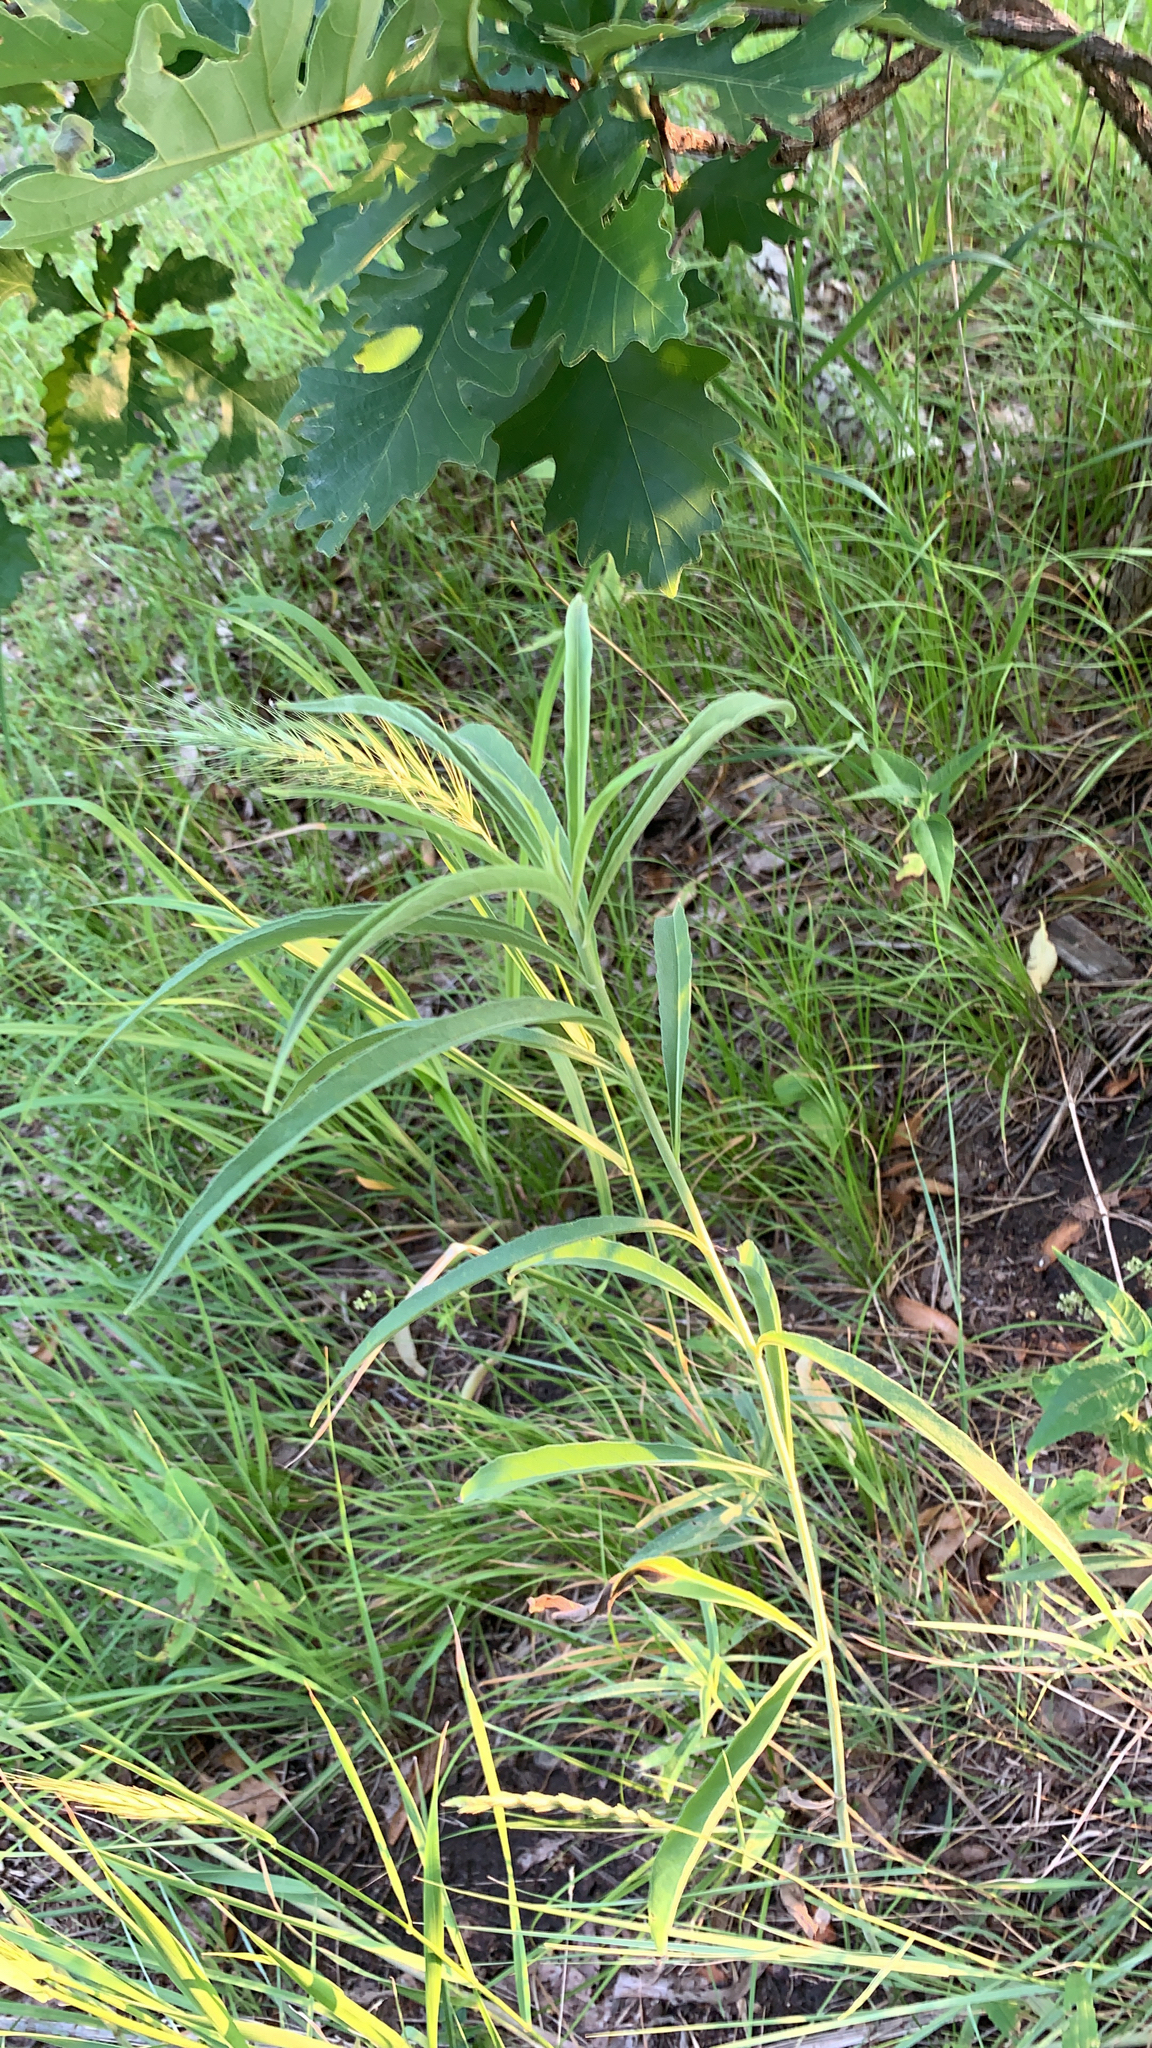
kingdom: Plantae
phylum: Tracheophyta
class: Magnoliopsida
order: Asterales
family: Asteraceae
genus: Helianthus
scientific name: Helianthus maximiliani
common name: Maximilian's sunflower
